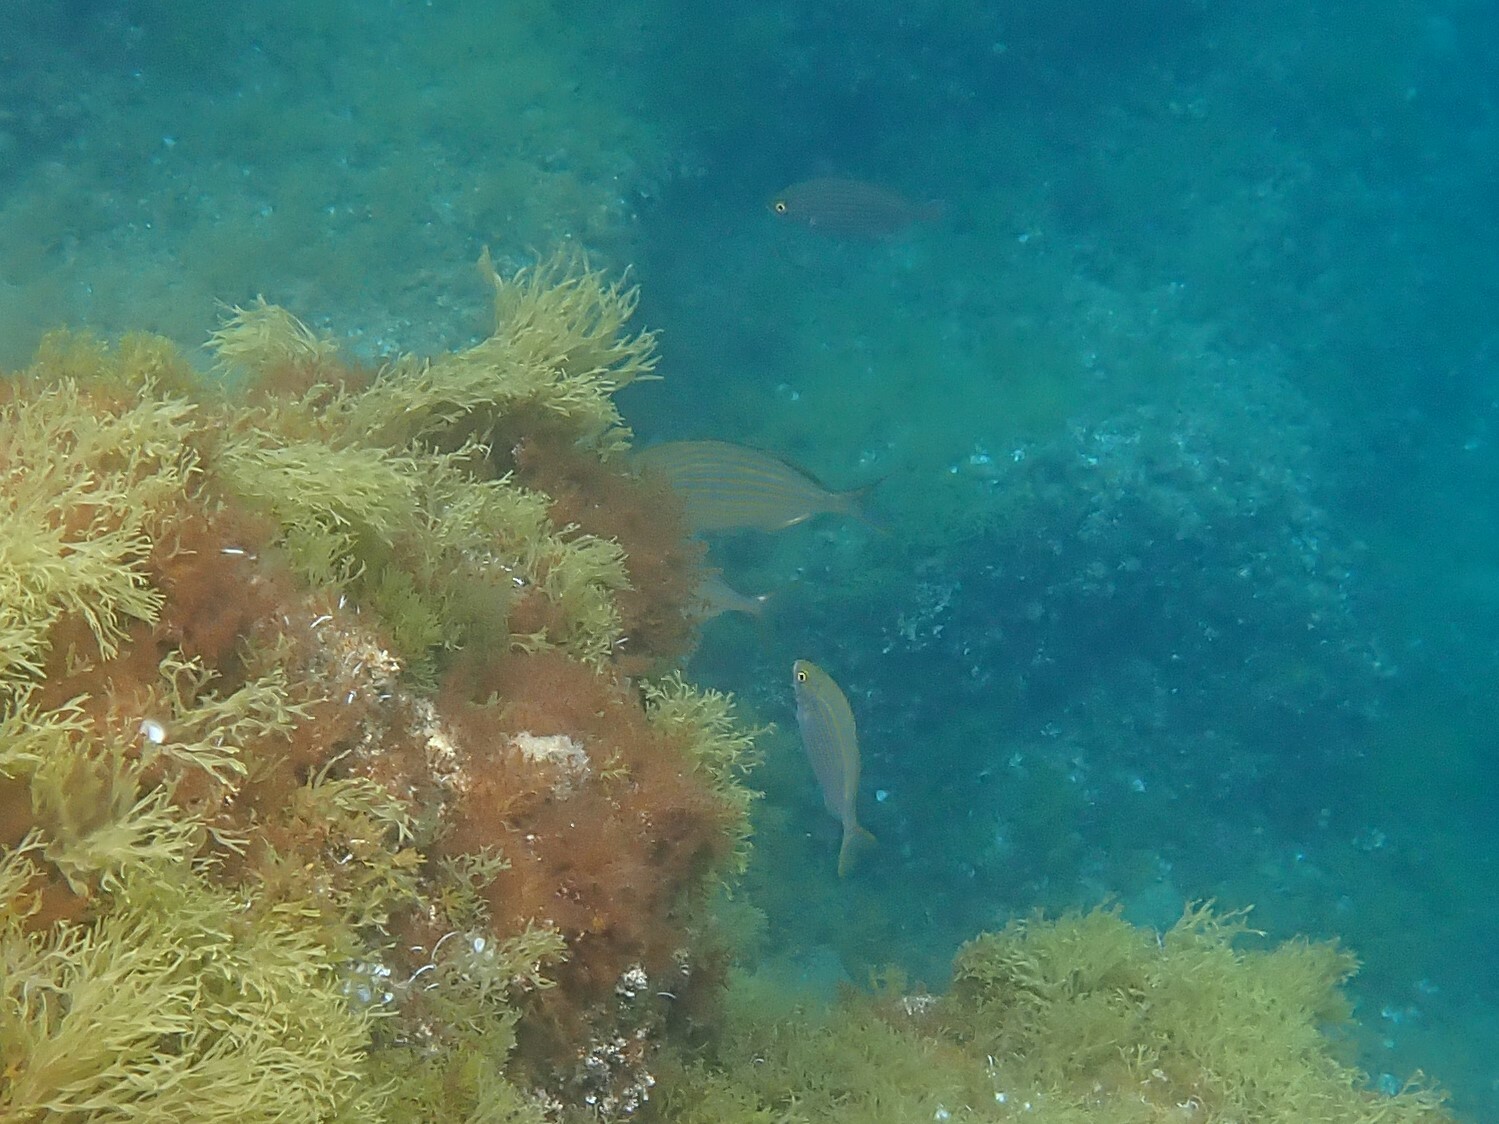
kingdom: Animalia
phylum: Chordata
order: Perciformes
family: Sparidae
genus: Sarpa
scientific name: Sarpa salpa
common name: Salema
